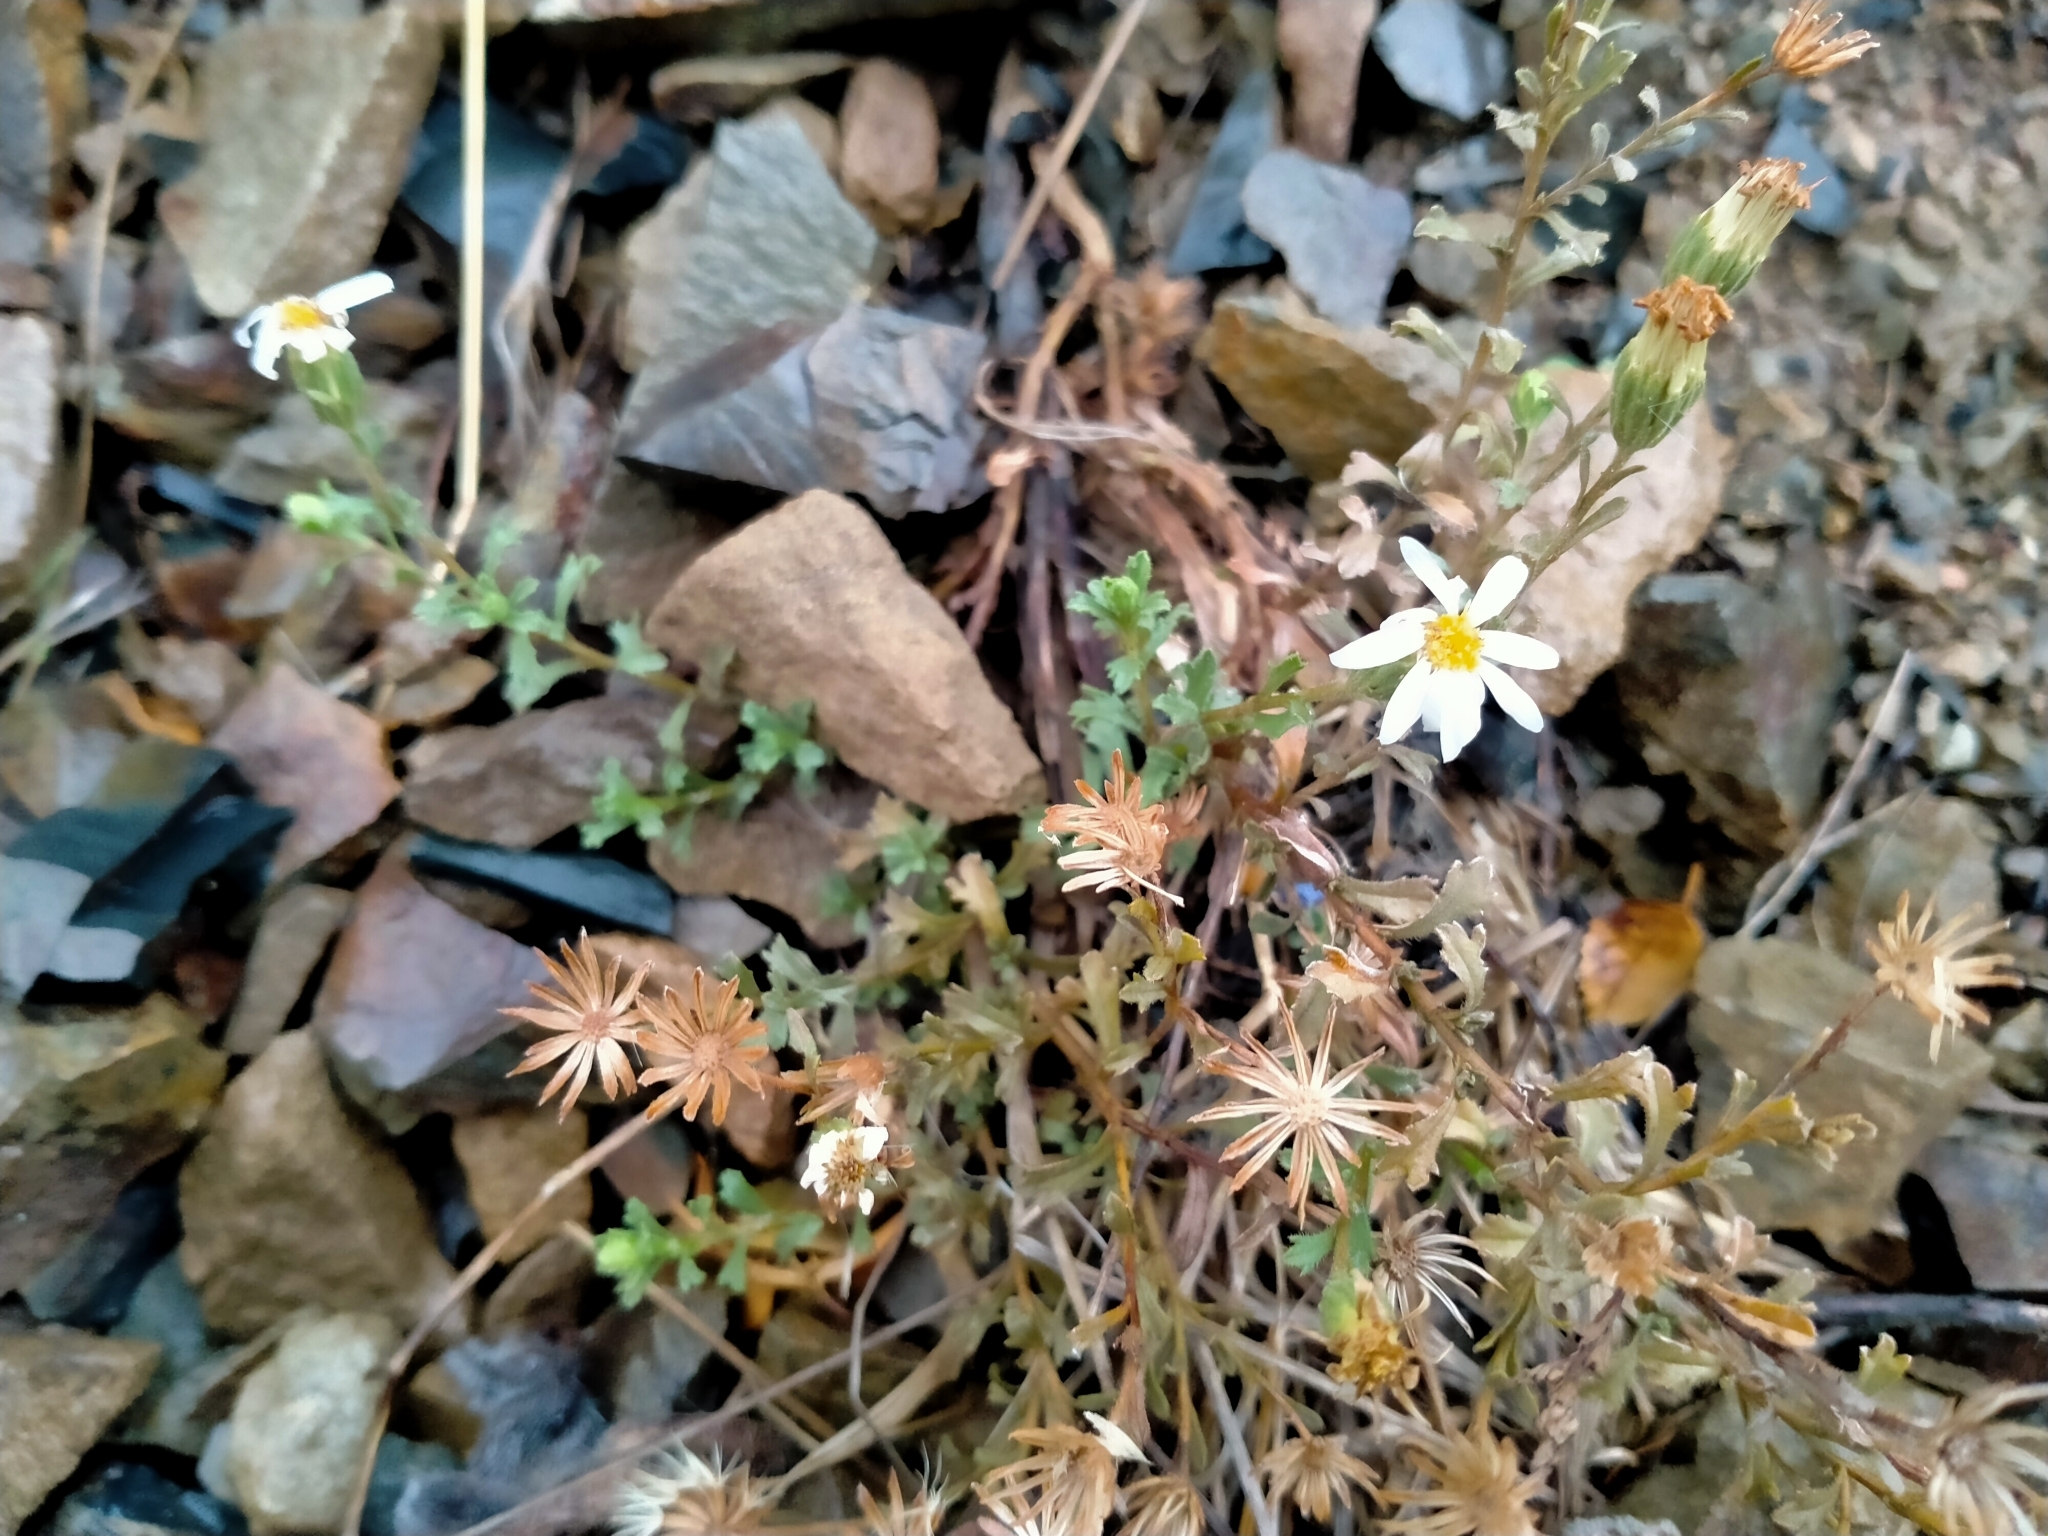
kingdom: Plantae
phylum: Tracheophyta
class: Magnoliopsida
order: Asterales
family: Asteraceae
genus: Vittadinia
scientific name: Vittadinia australis
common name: White fuzzweed
